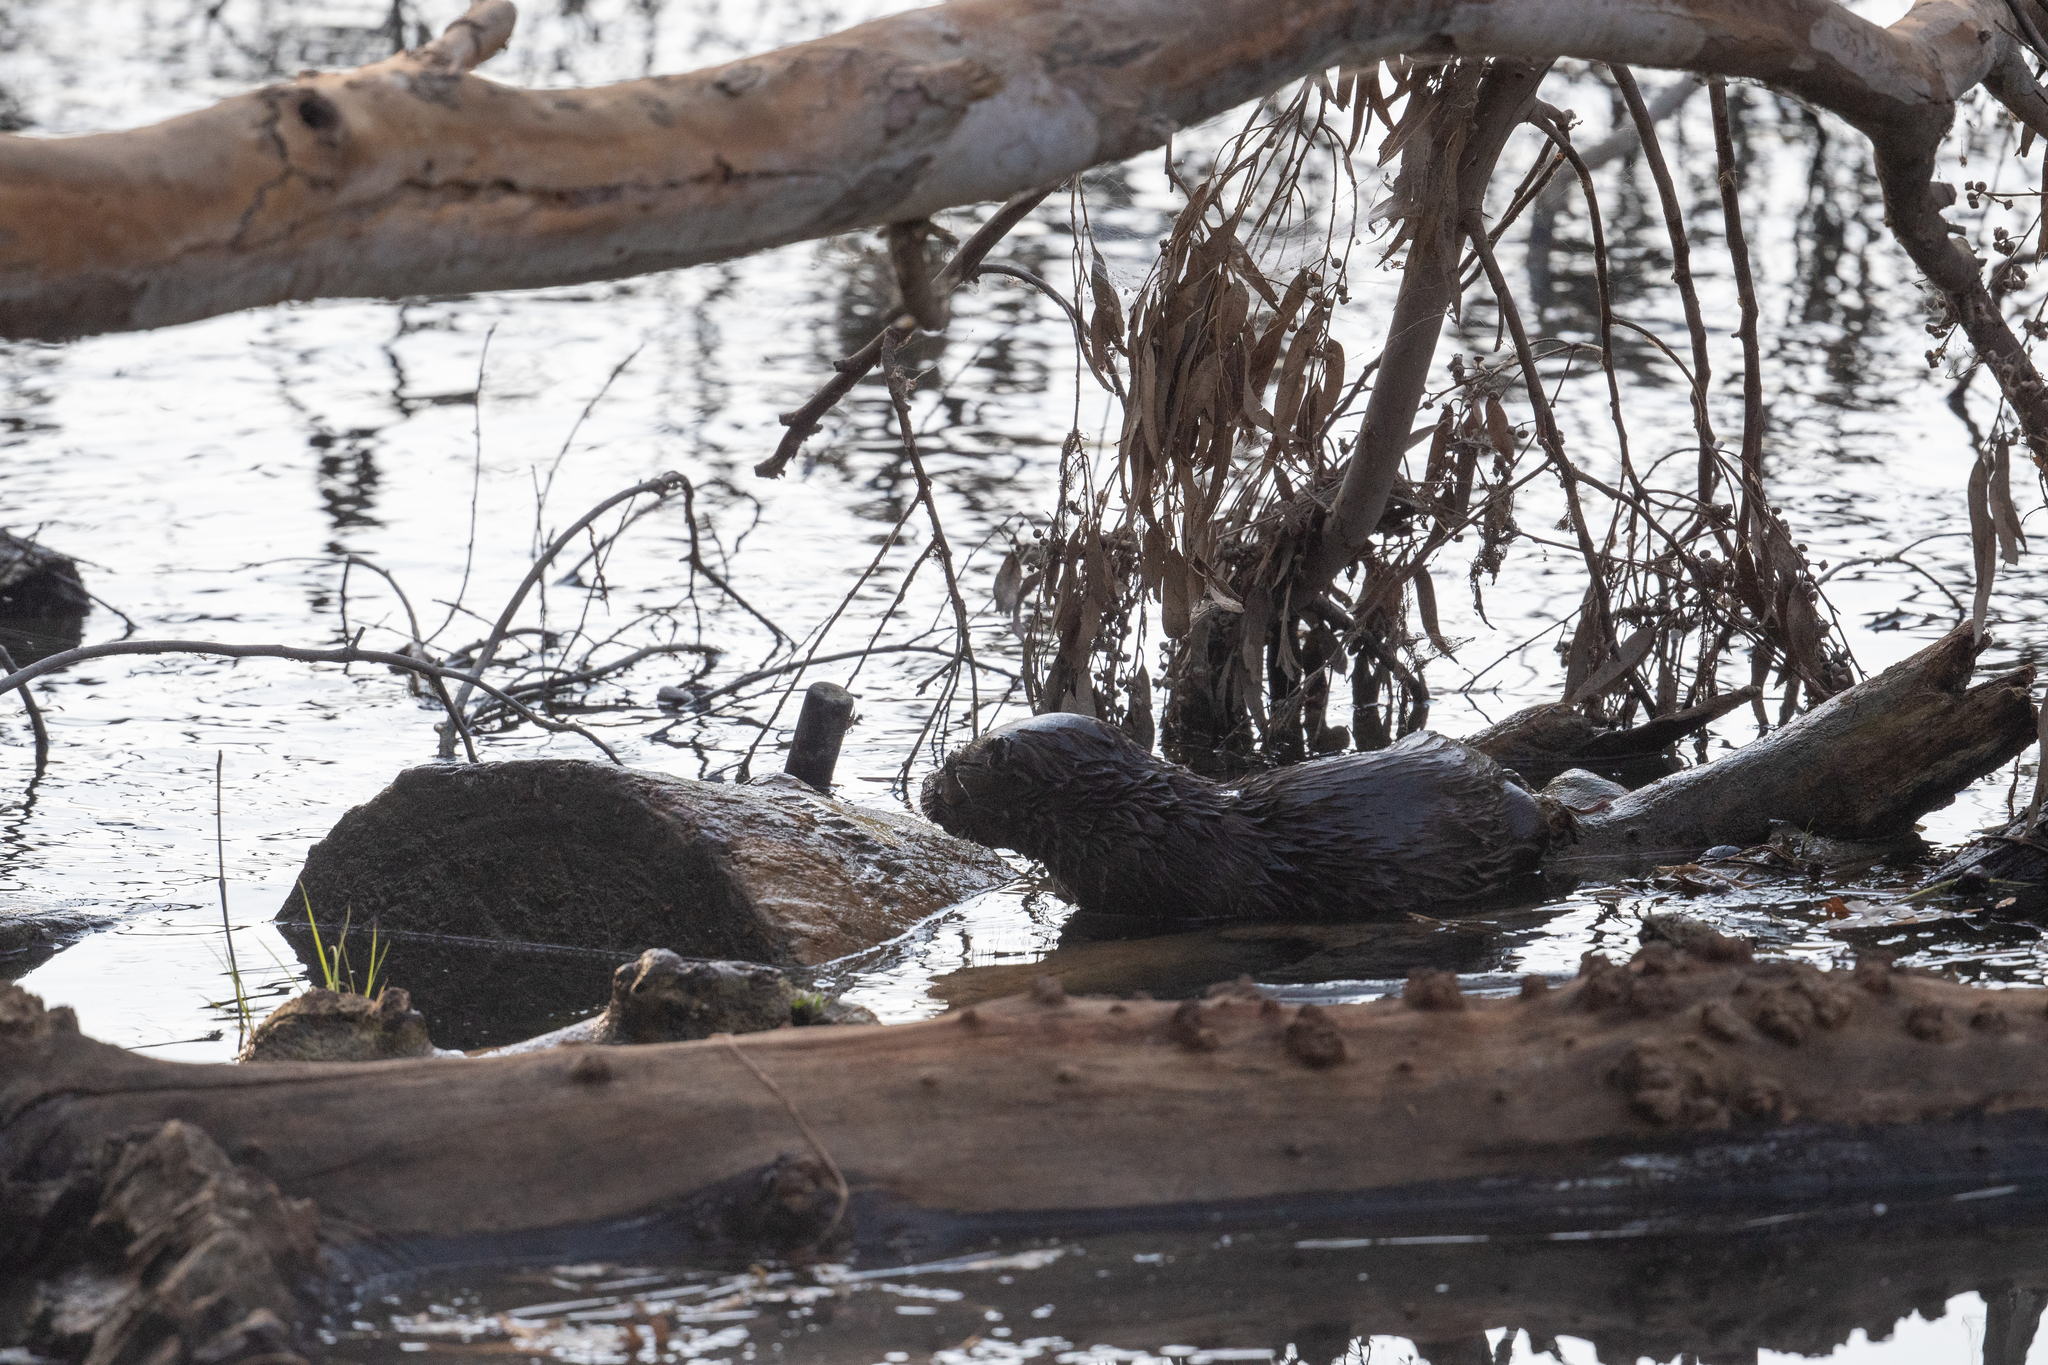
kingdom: Animalia
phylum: Chordata
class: Mammalia
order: Carnivora
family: Mustelidae
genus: Lontra
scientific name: Lontra canadensis
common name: North american river otter
